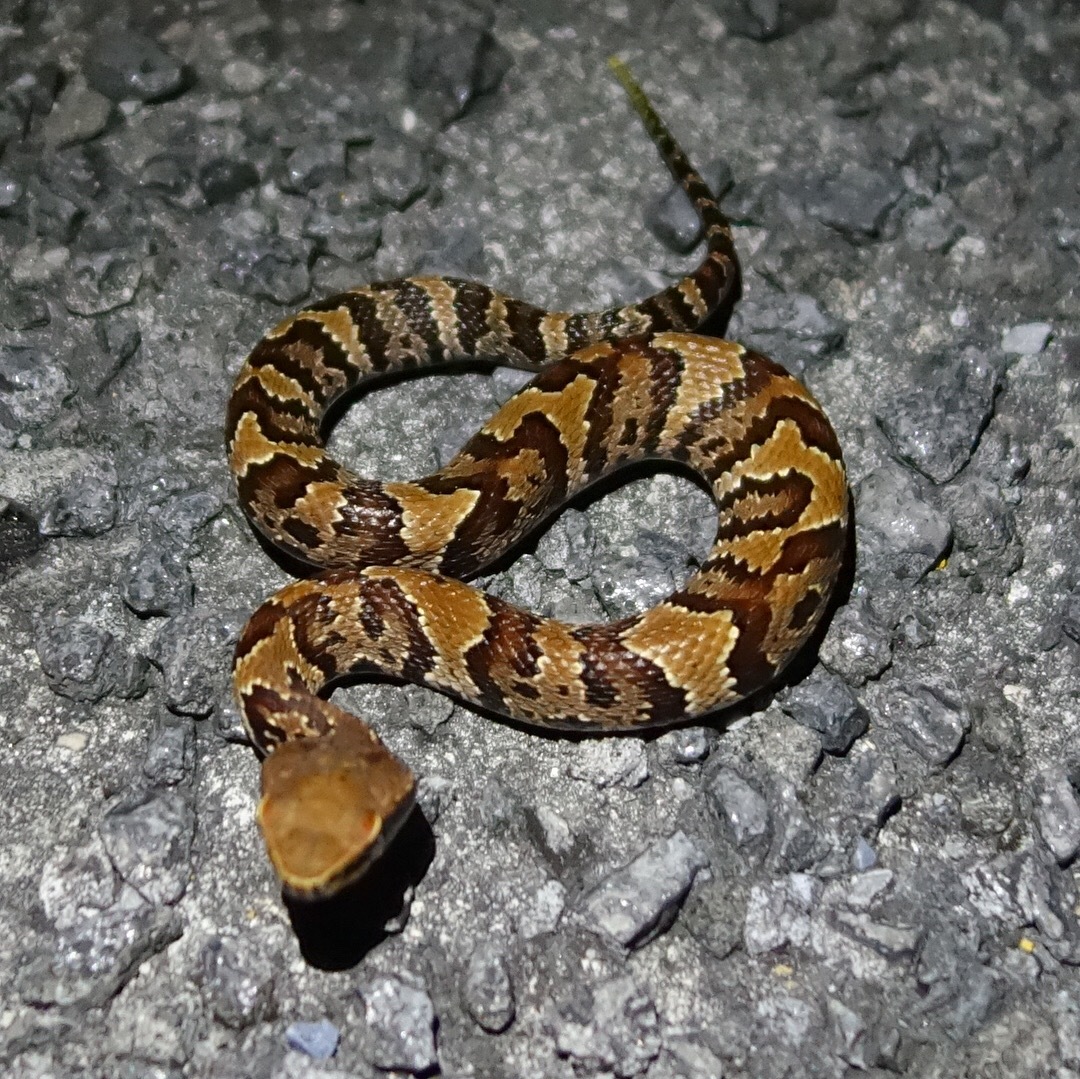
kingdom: Animalia
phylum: Chordata
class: Squamata
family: Viperidae
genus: Agkistrodon
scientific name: Agkistrodon conanti
